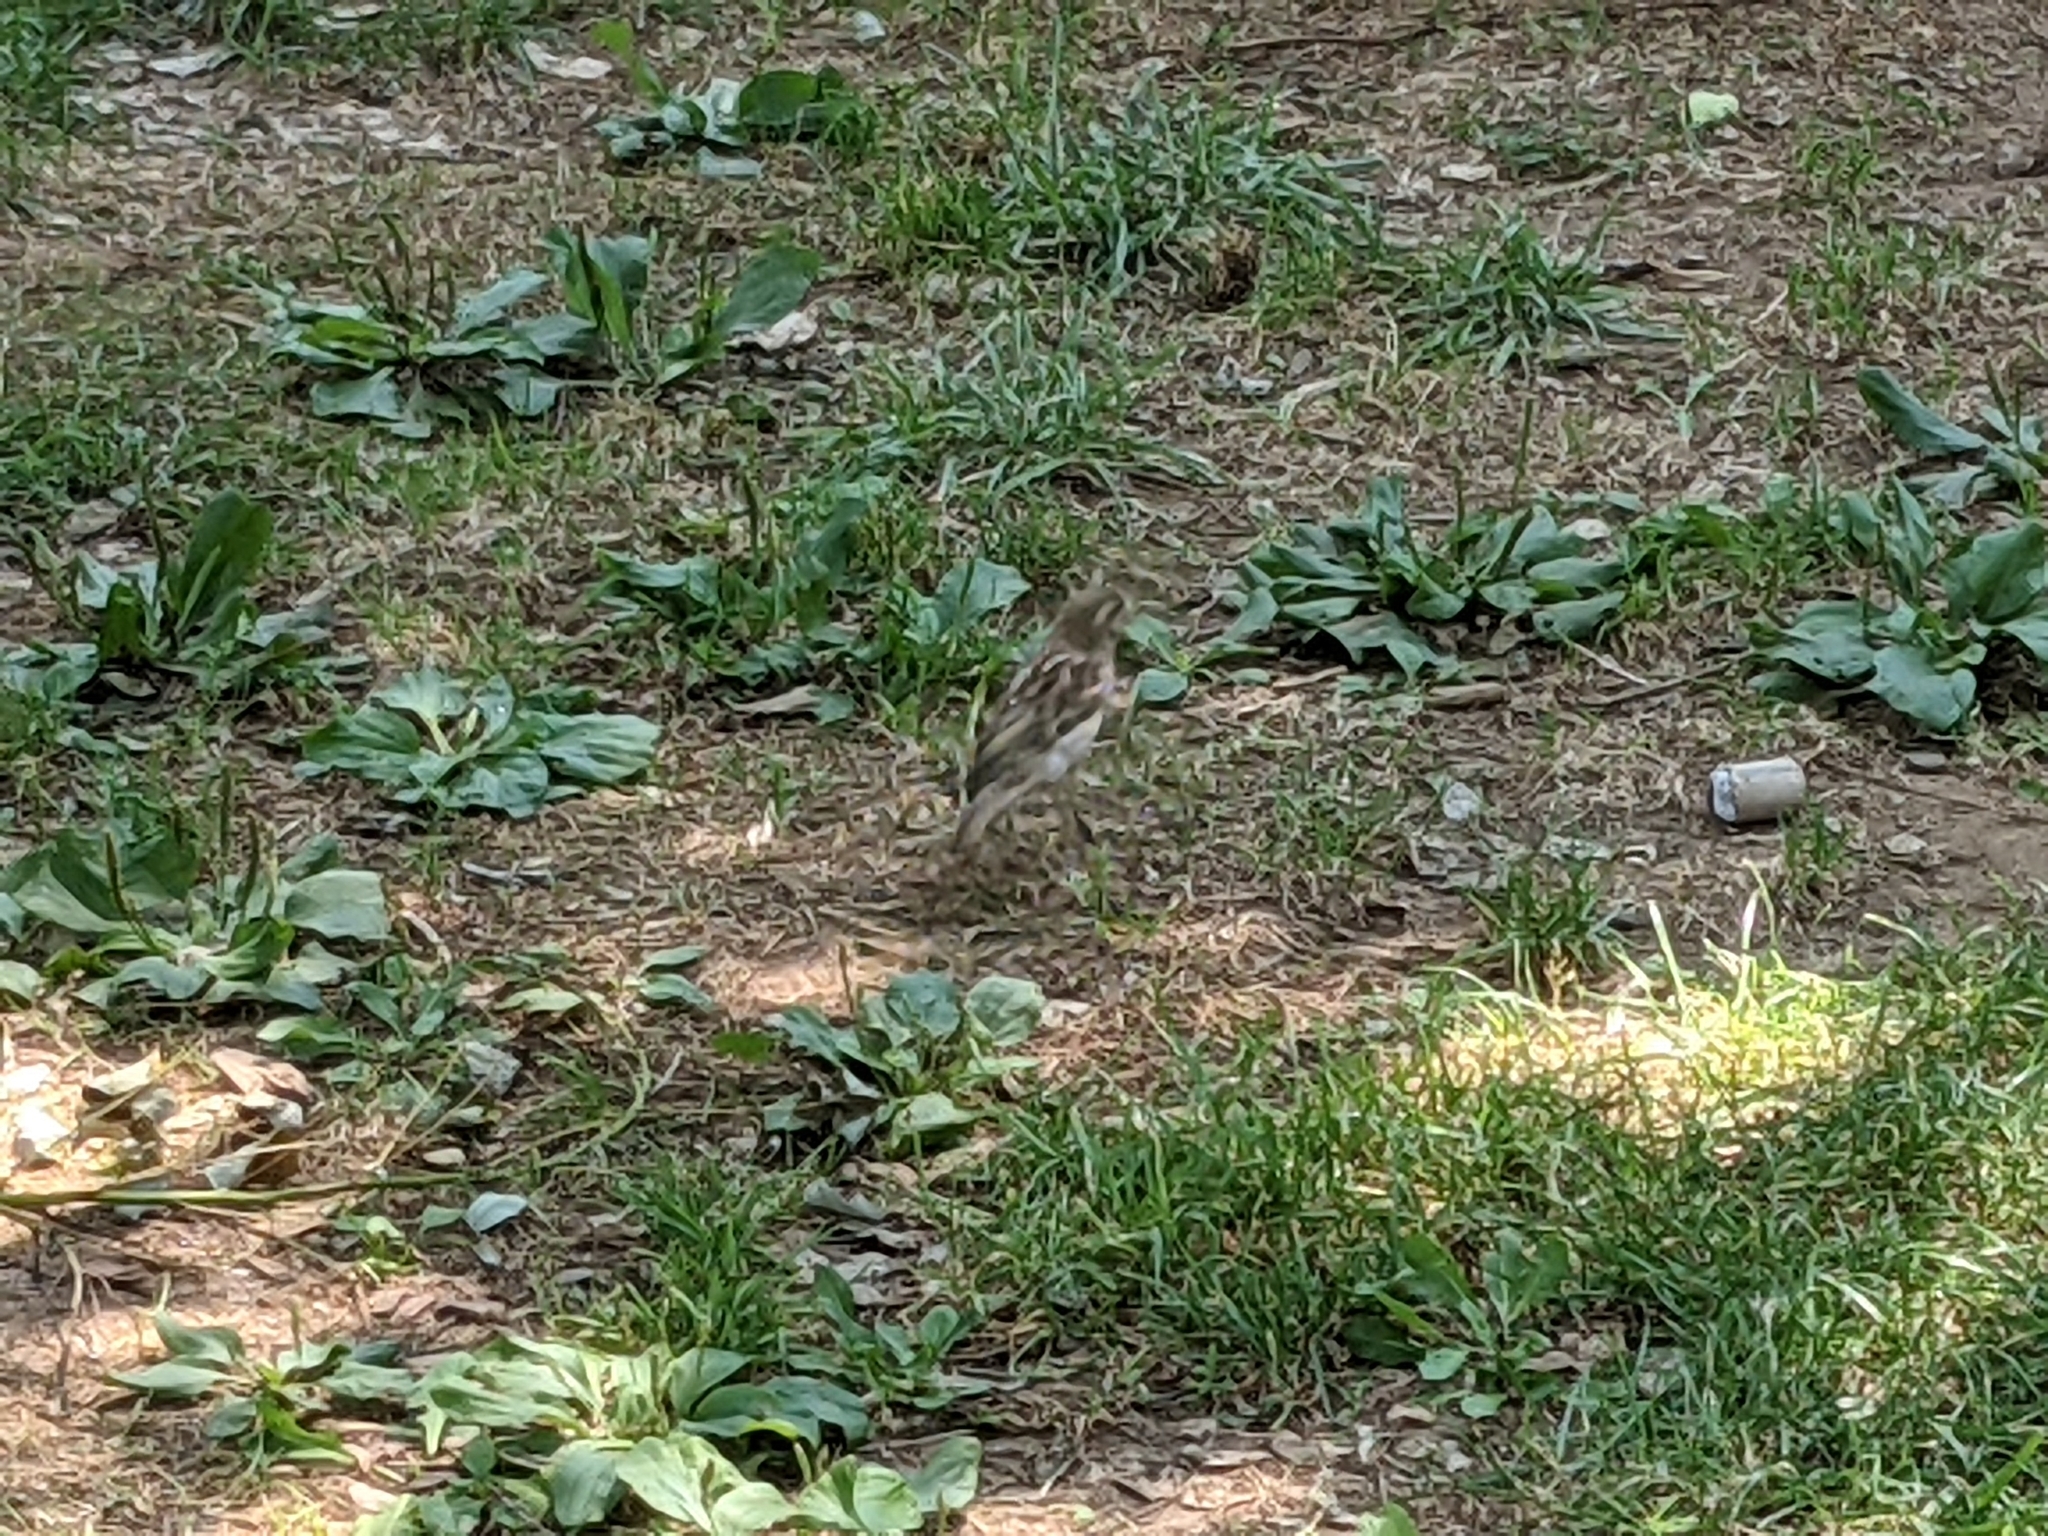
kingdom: Animalia
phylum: Chordata
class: Aves
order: Passeriformes
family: Passeridae
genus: Passer
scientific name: Passer domesticus
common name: House sparrow
